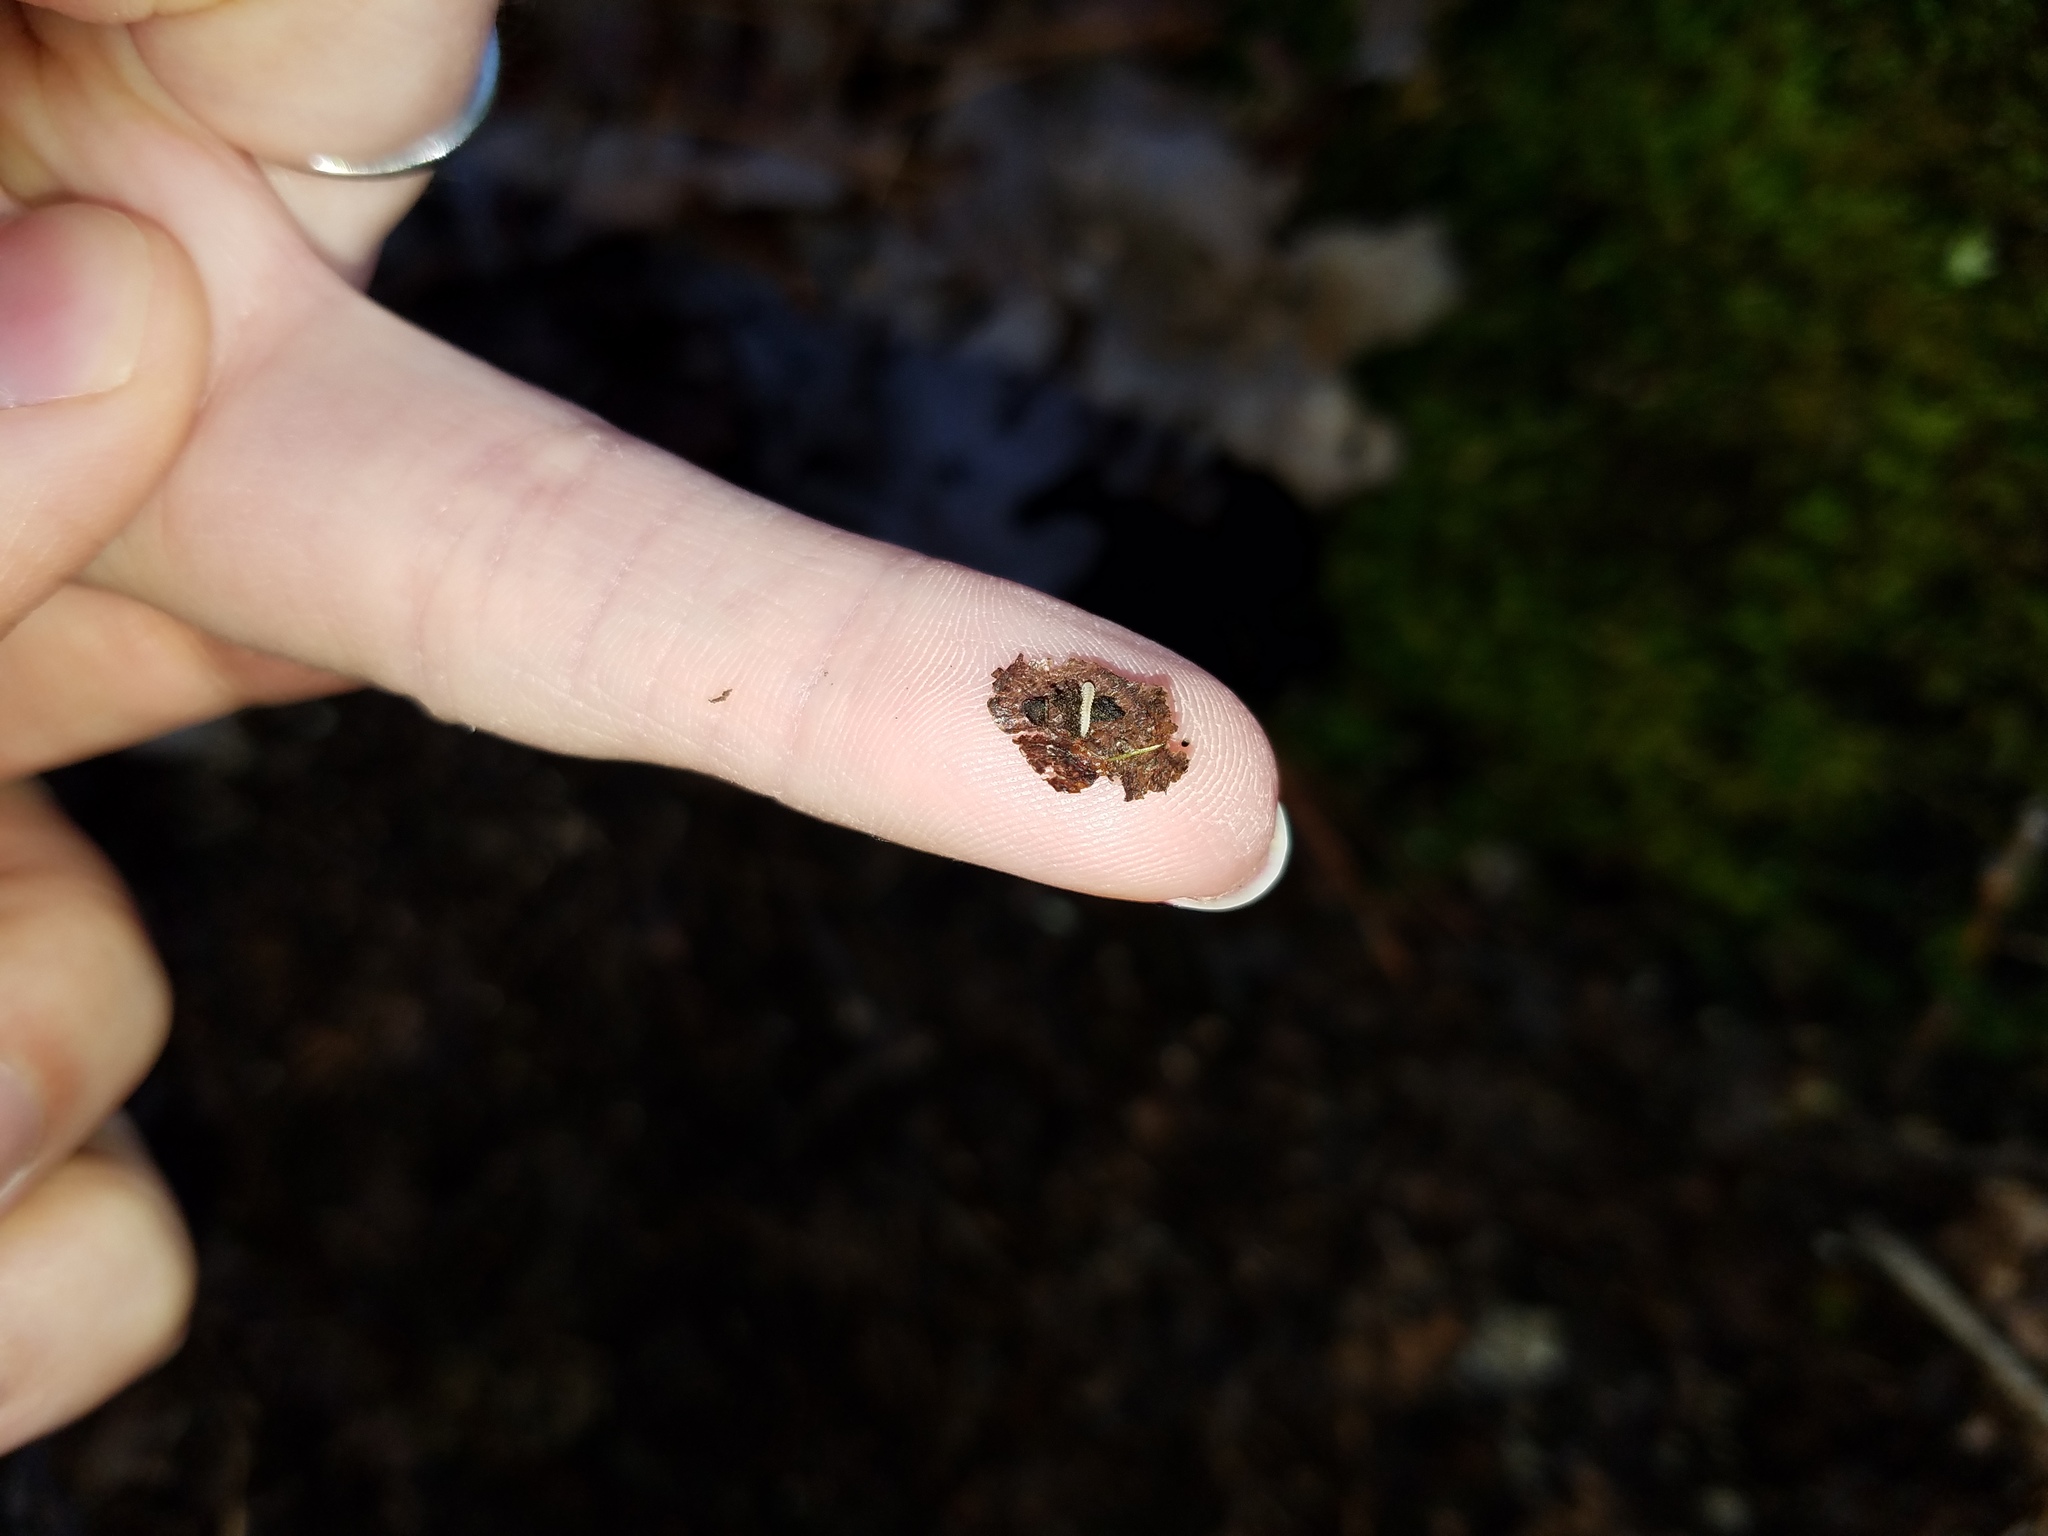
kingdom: Animalia
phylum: Arthropoda
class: Diplopoda
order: Chordeumatida
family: Buotidae
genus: Buotus
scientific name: Buotus carolinus
